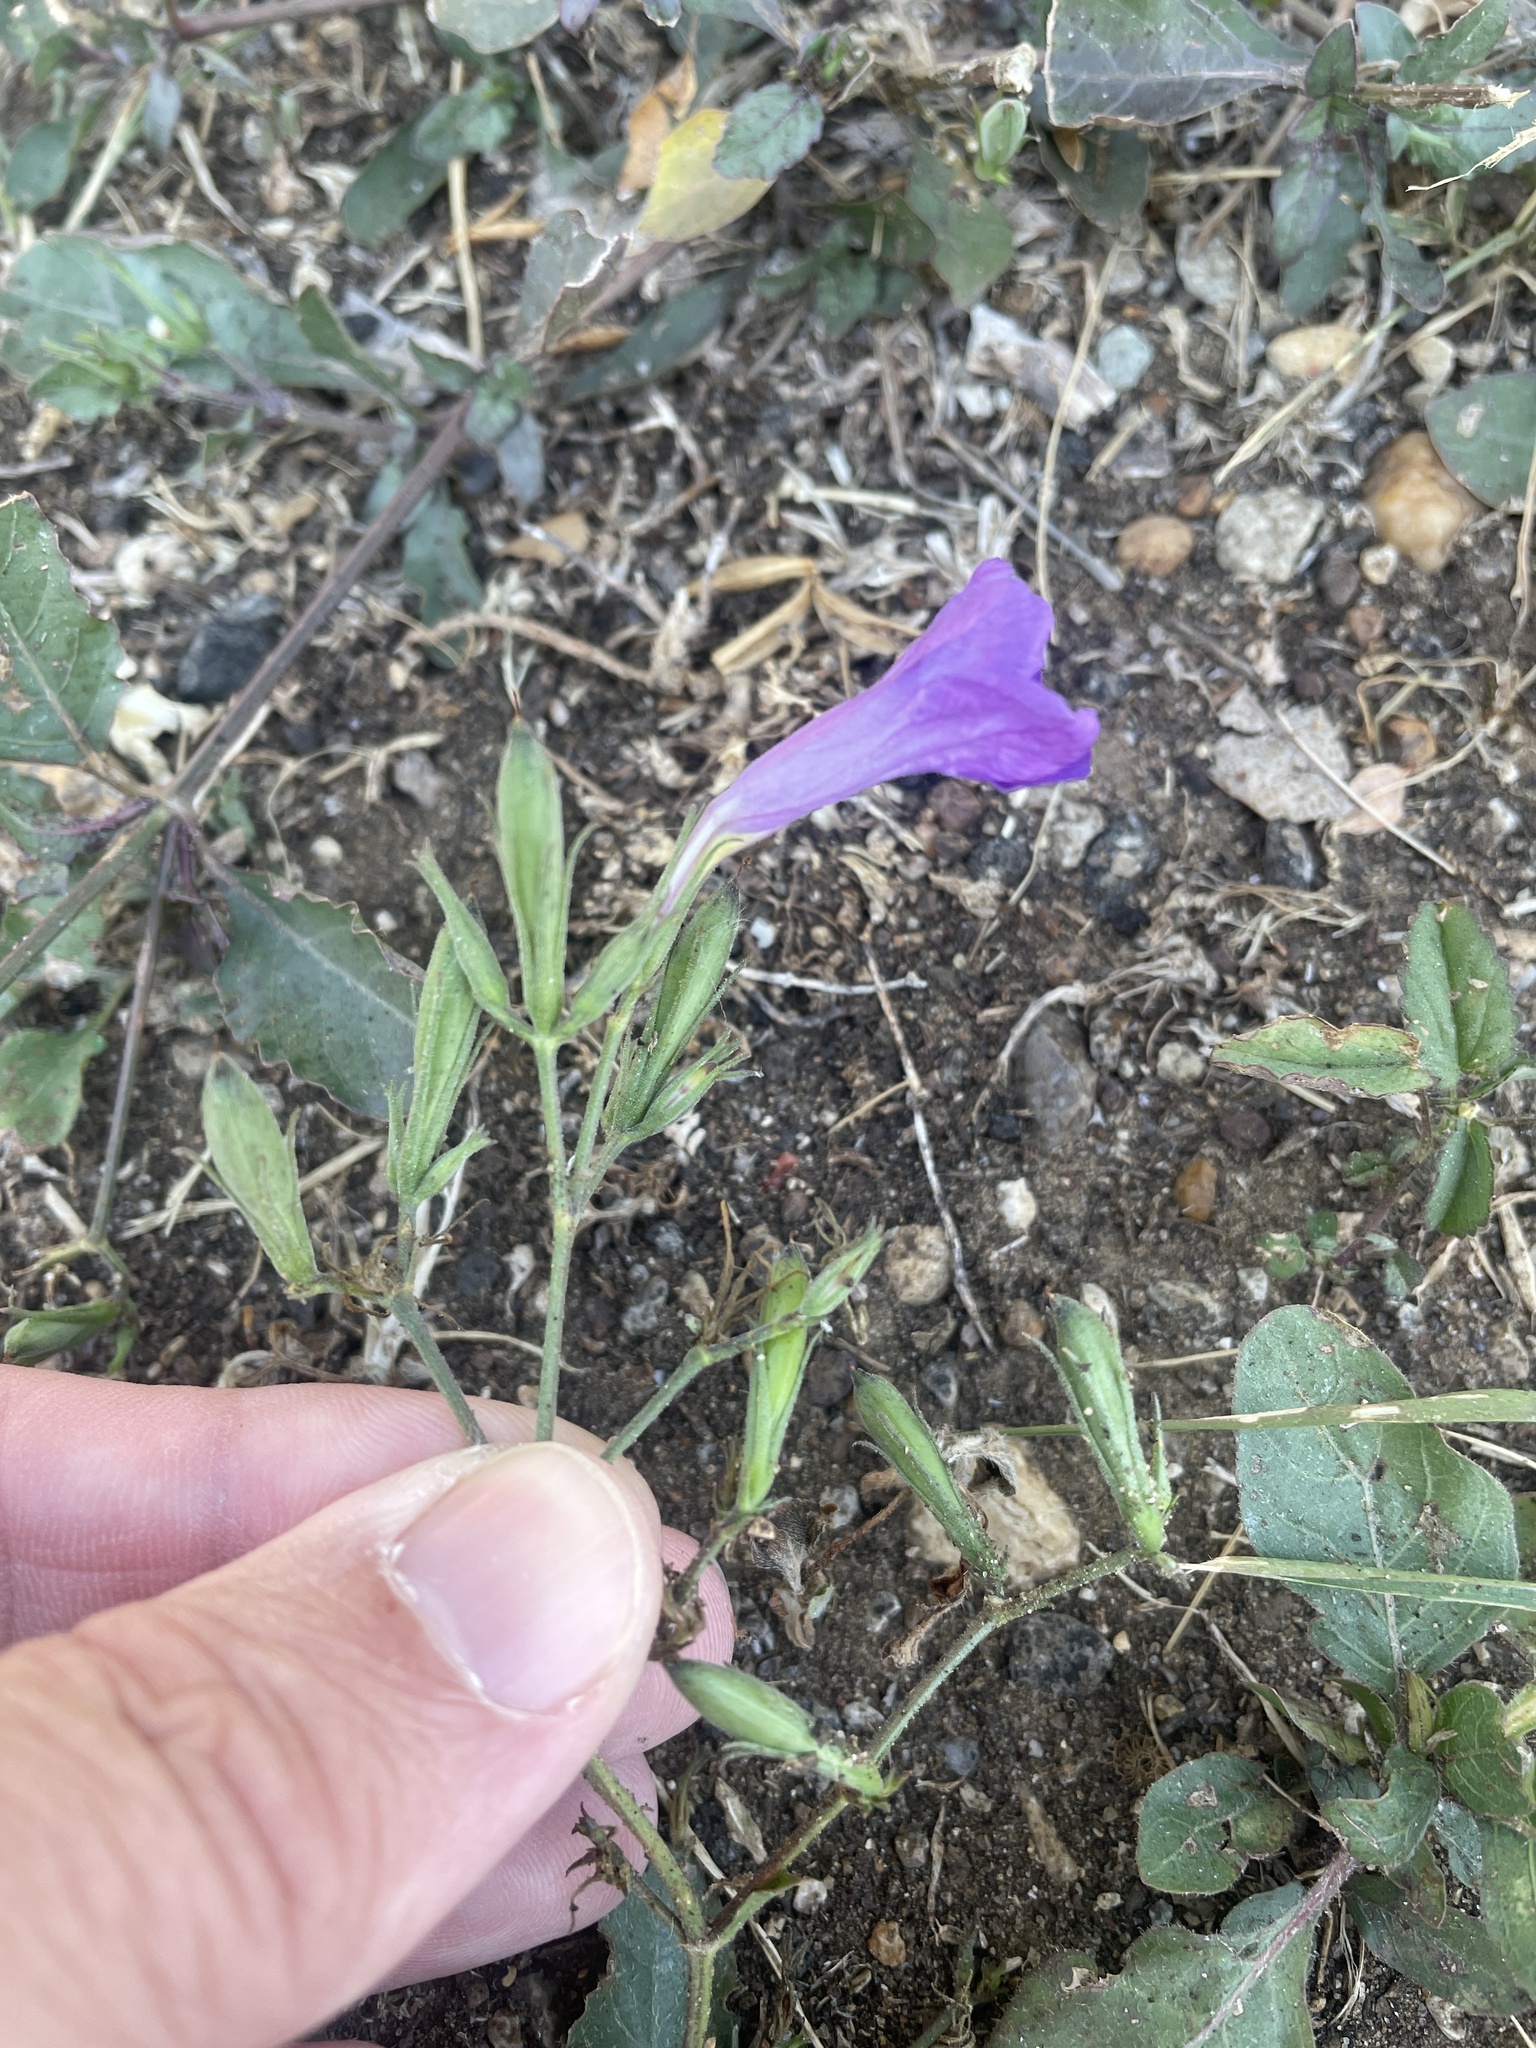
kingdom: Plantae
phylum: Tracheophyta
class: Magnoliopsida
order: Lamiales
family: Acanthaceae
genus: Ruellia
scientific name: Ruellia ciliatiflora
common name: Hairyflower wild petunia
